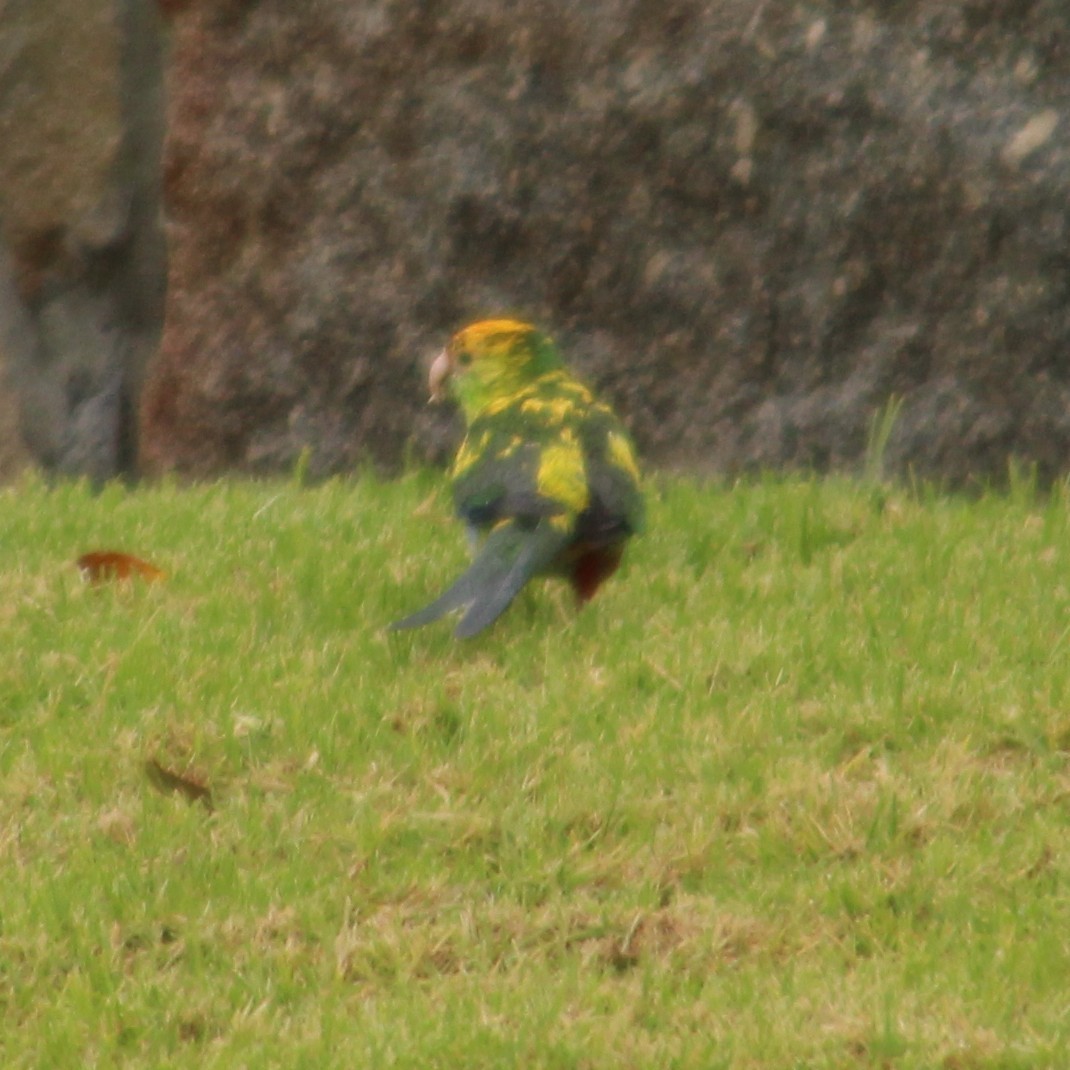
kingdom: Animalia
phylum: Chordata
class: Aves
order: Psittaciformes
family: Psittacidae
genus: Purpureicephalus
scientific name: Purpureicephalus spurius
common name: Red-capped parrot
